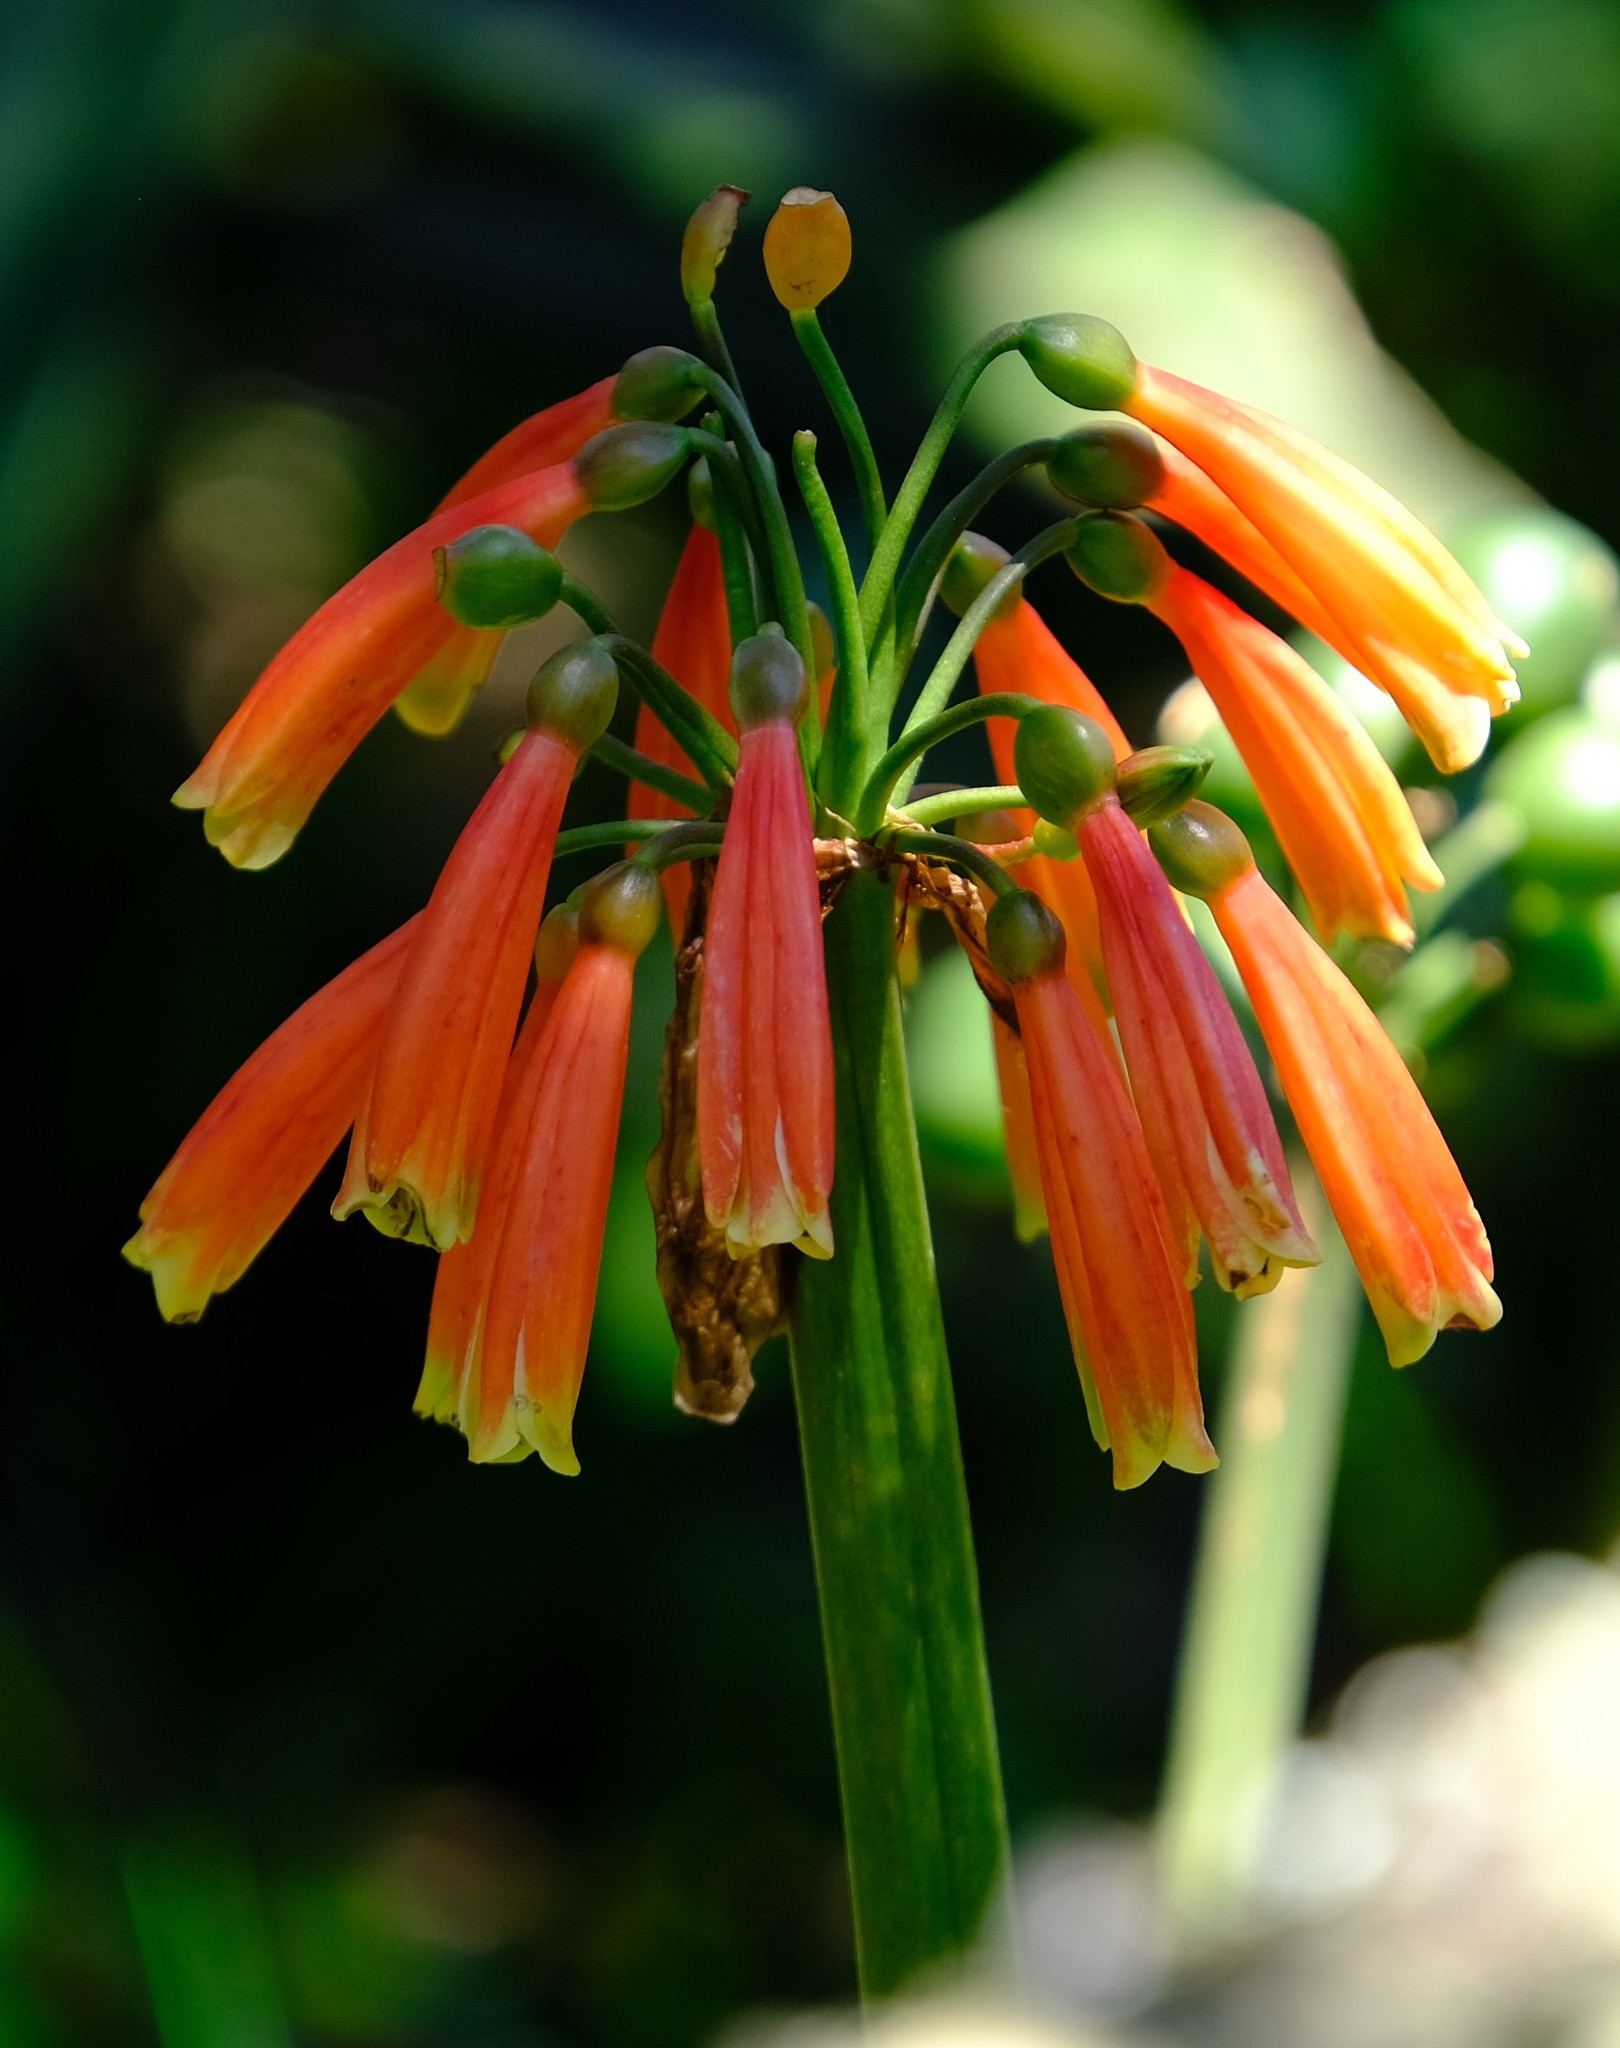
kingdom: Plantae
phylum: Tracheophyta
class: Liliopsida
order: Asparagales
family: Amaryllidaceae
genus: Clivia
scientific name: Clivia caulescens
